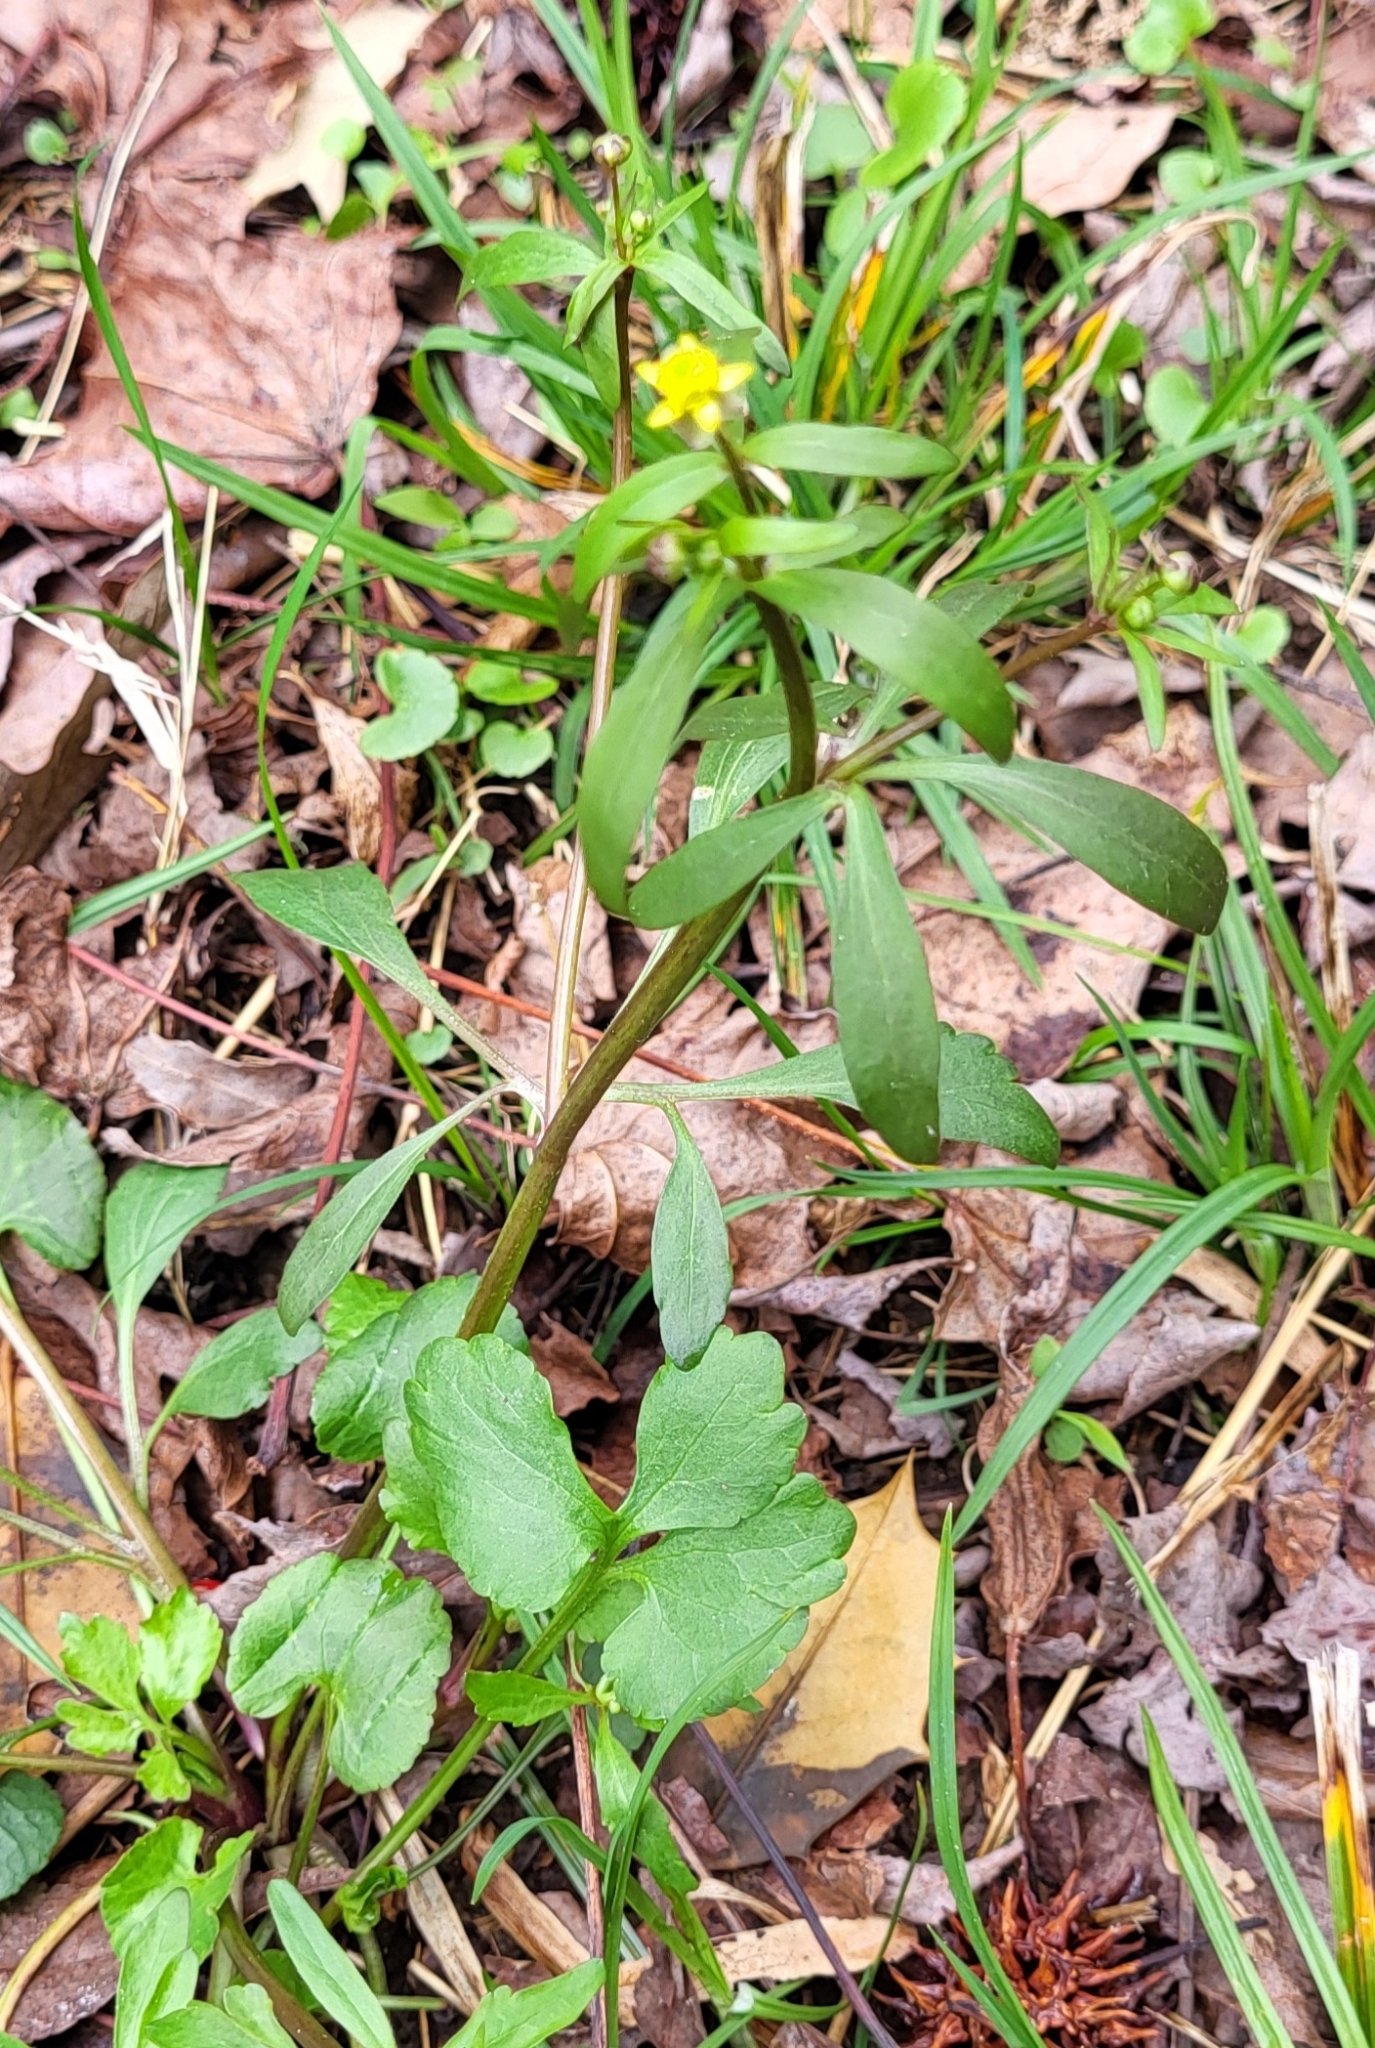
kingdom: Plantae
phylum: Tracheophyta
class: Magnoliopsida
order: Ranunculales
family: Ranunculaceae
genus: Ranunculus
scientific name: Ranunculus abortivus
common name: Early wood buttercup
